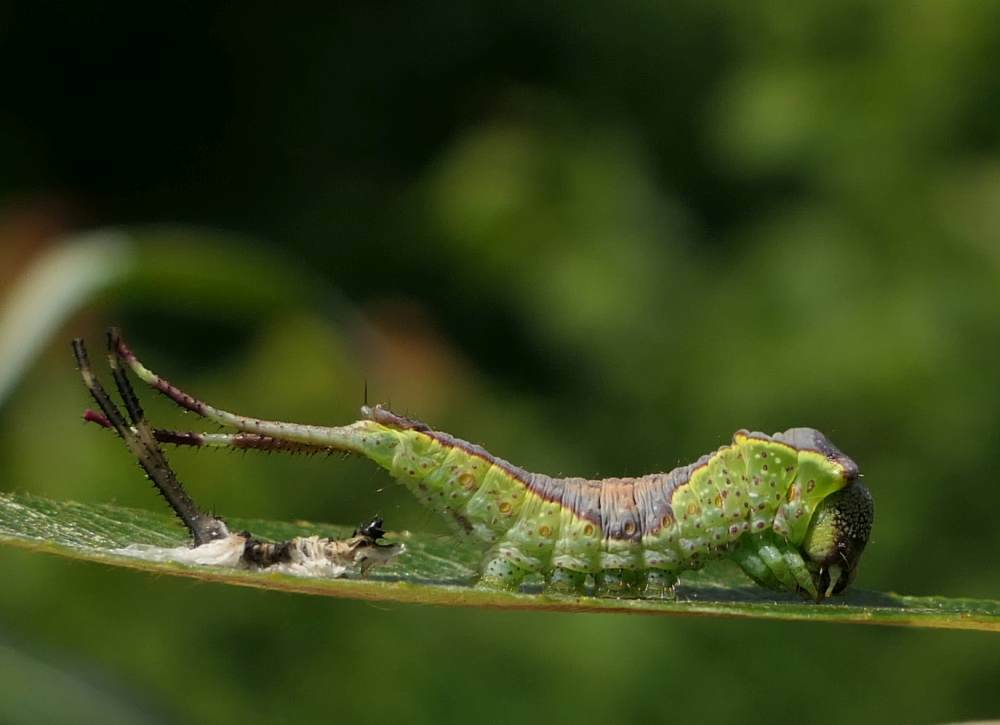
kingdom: Animalia
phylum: Arthropoda
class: Insecta
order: Lepidoptera
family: Notodontidae
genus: Furcula
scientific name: Furcula occidentalis
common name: Western furcula moth
